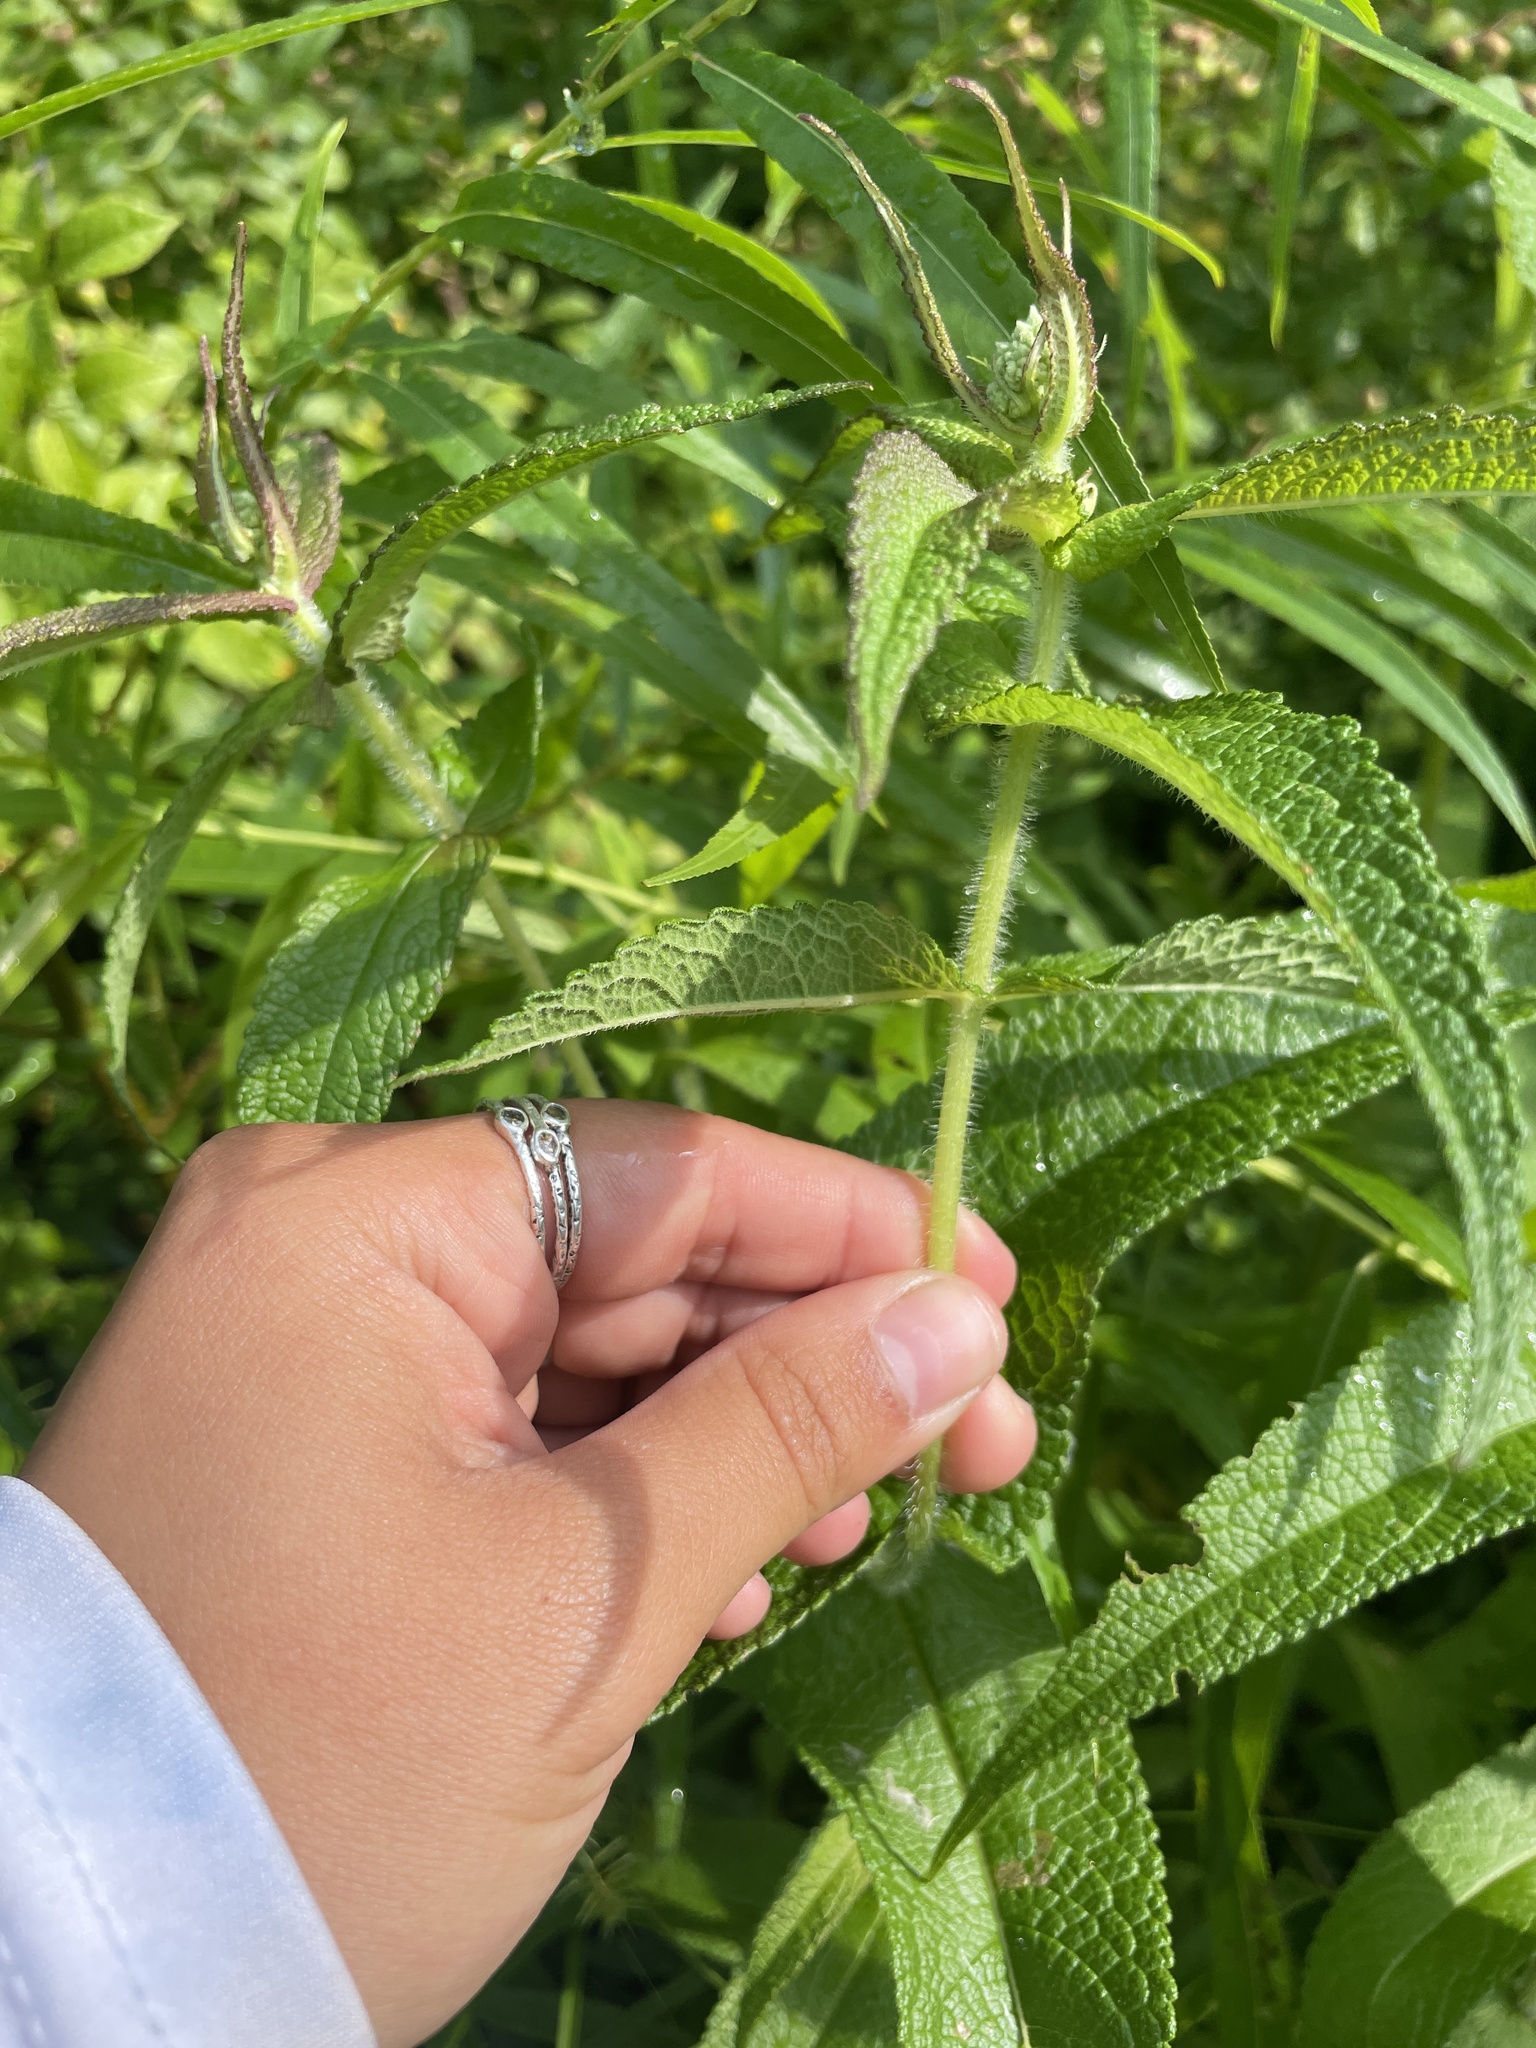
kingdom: Plantae
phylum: Tracheophyta
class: Magnoliopsida
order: Asterales
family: Asteraceae
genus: Eupatorium
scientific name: Eupatorium perfoliatum
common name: Boneset
